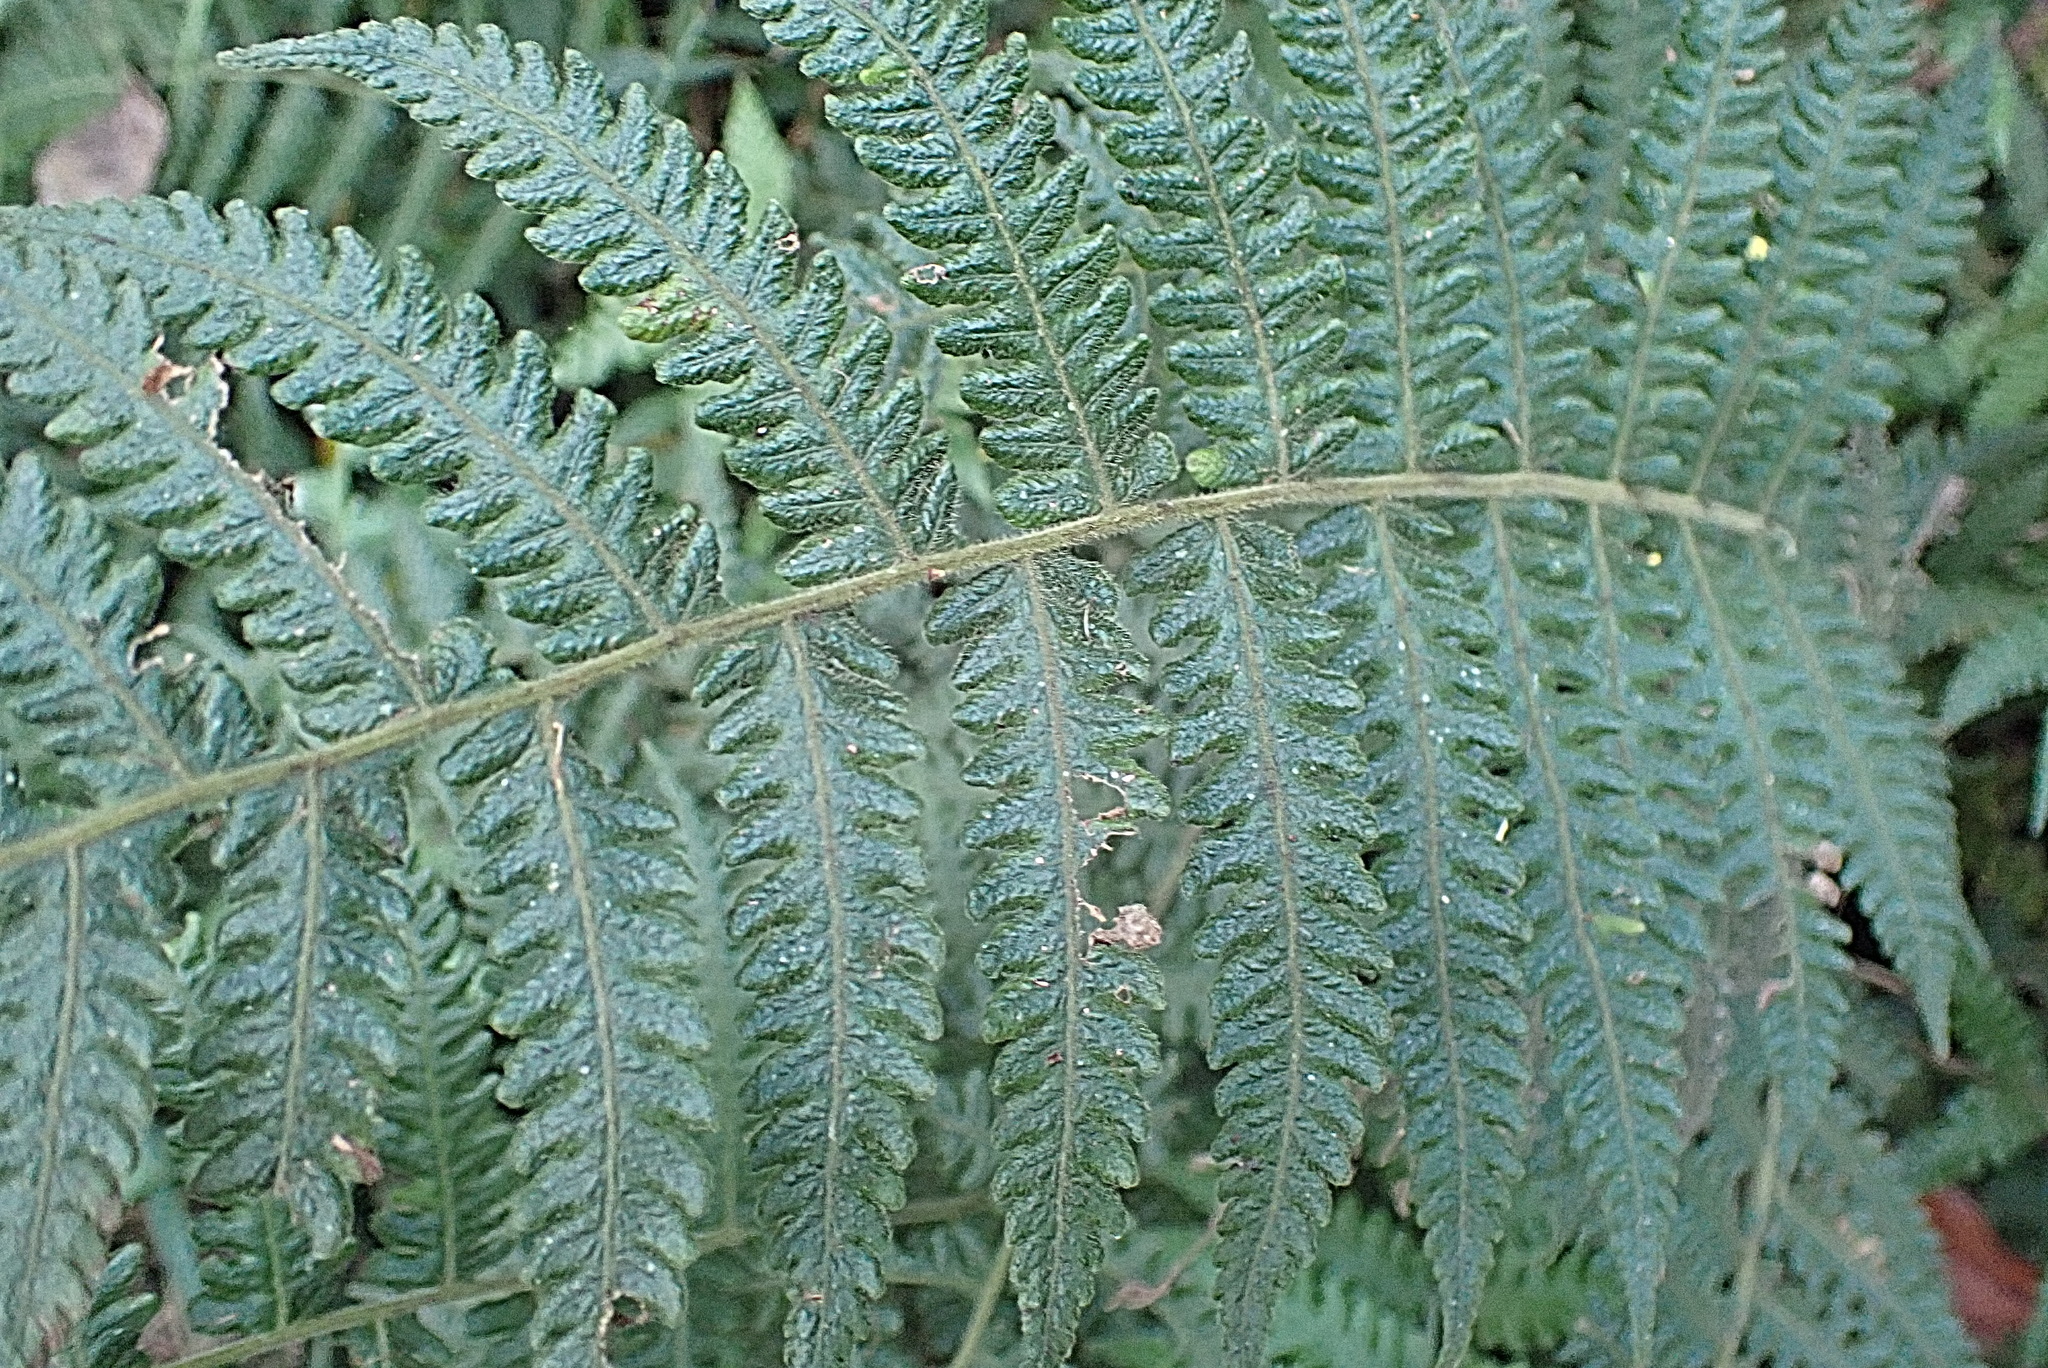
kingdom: Plantae
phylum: Tracheophyta
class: Polypodiopsida
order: Polypodiales
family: Thelypteridaceae
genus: Amauropelta
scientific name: Amauropelta bergiana
